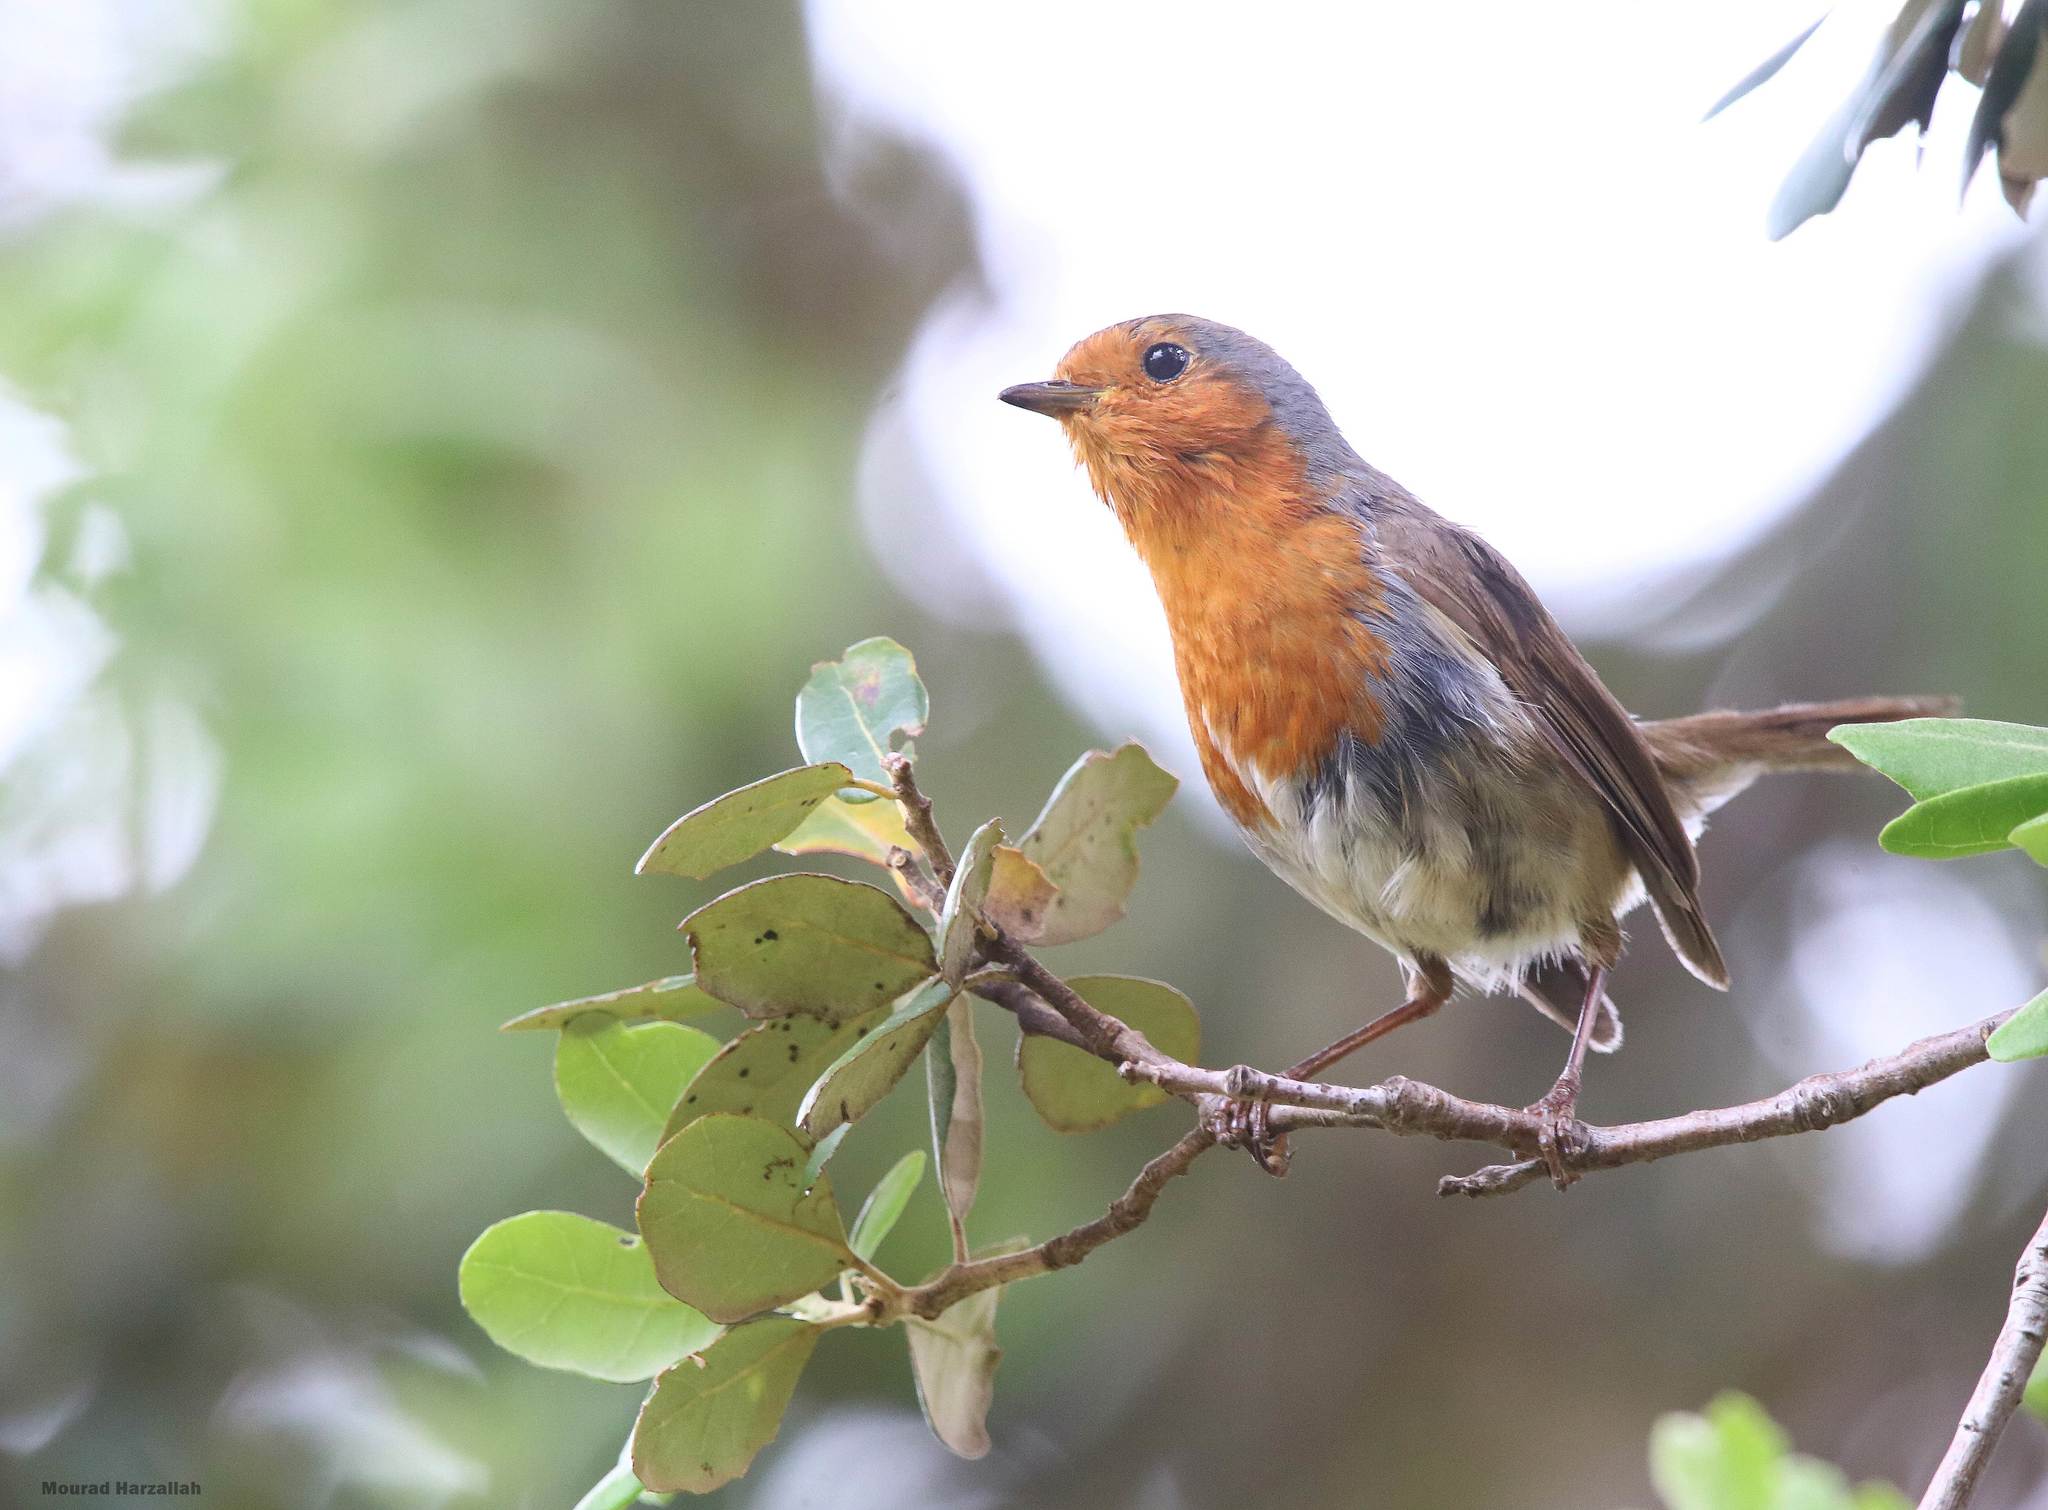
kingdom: Animalia
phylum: Chordata
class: Aves
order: Passeriformes
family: Muscicapidae
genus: Erithacus
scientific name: Erithacus rubecula
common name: European robin
